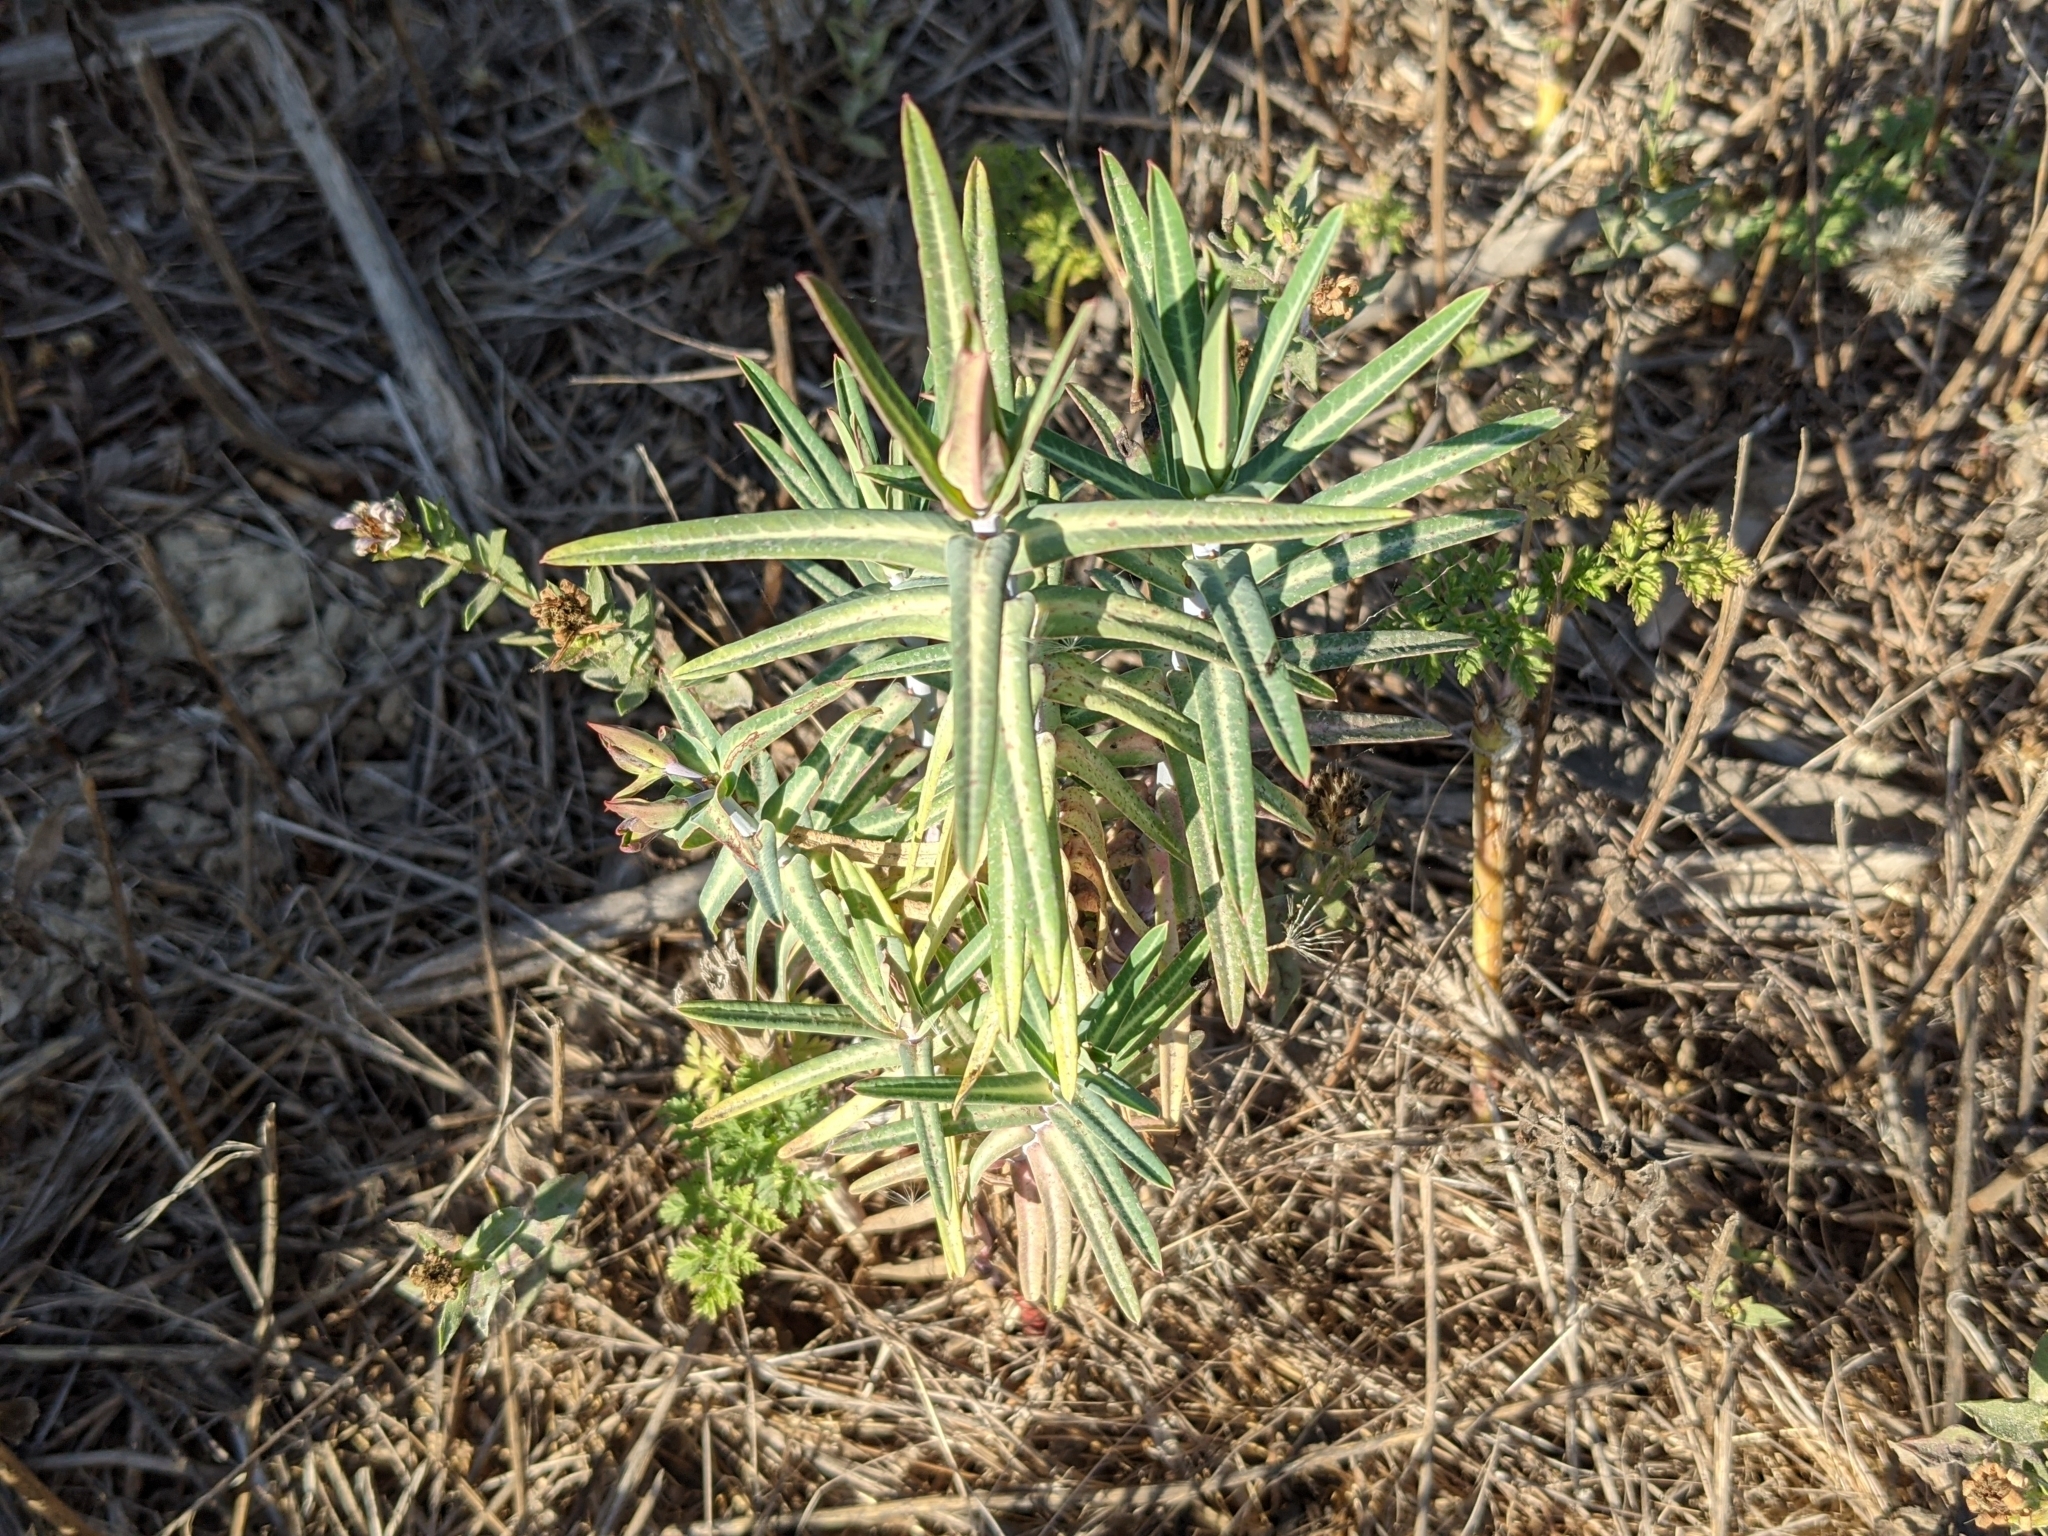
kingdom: Plantae
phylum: Tracheophyta
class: Magnoliopsida
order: Malpighiales
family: Euphorbiaceae
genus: Euphorbia
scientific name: Euphorbia lathyris
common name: Caper spurge
